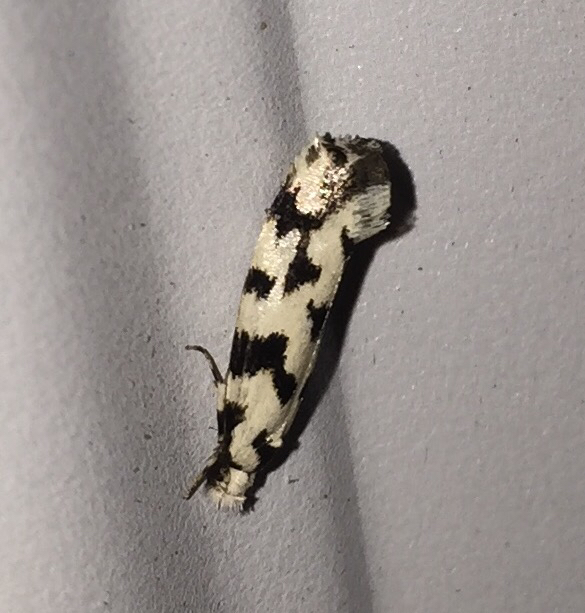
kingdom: Animalia
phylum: Arthropoda
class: Insecta
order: Lepidoptera
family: Tineidae
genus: Erechthias
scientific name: Erechthias simulans
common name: Fungus moth
